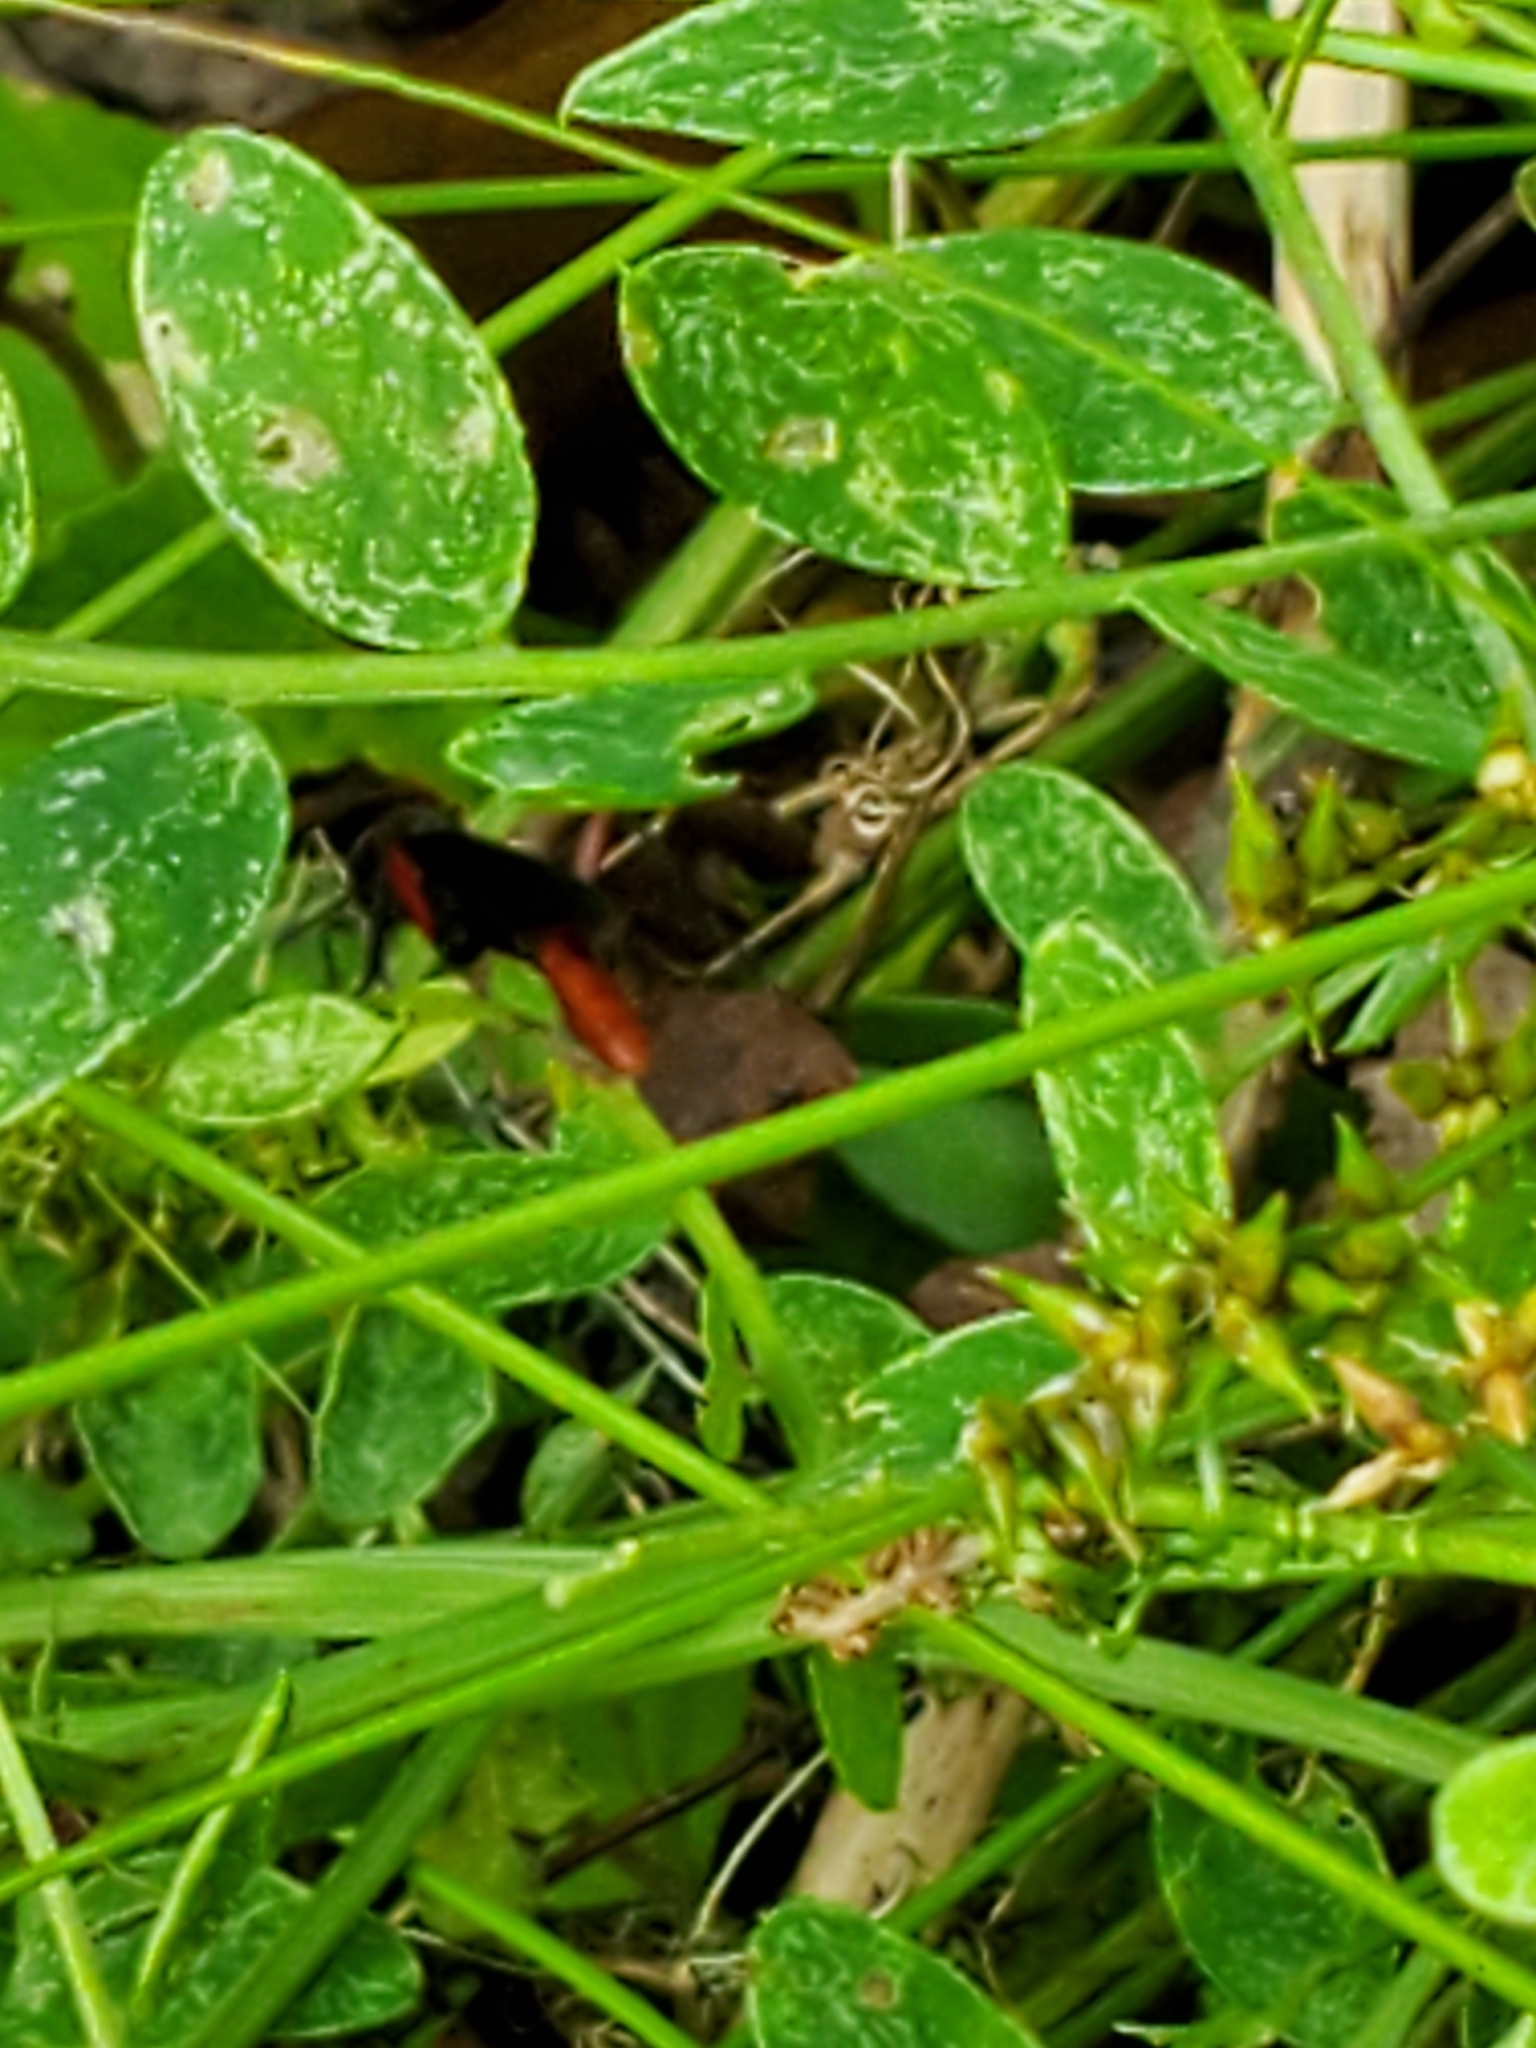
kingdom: Animalia
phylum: Arthropoda
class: Insecta
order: Hymenoptera
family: Ichneumonidae
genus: Limonethe
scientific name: Limonethe maurator
